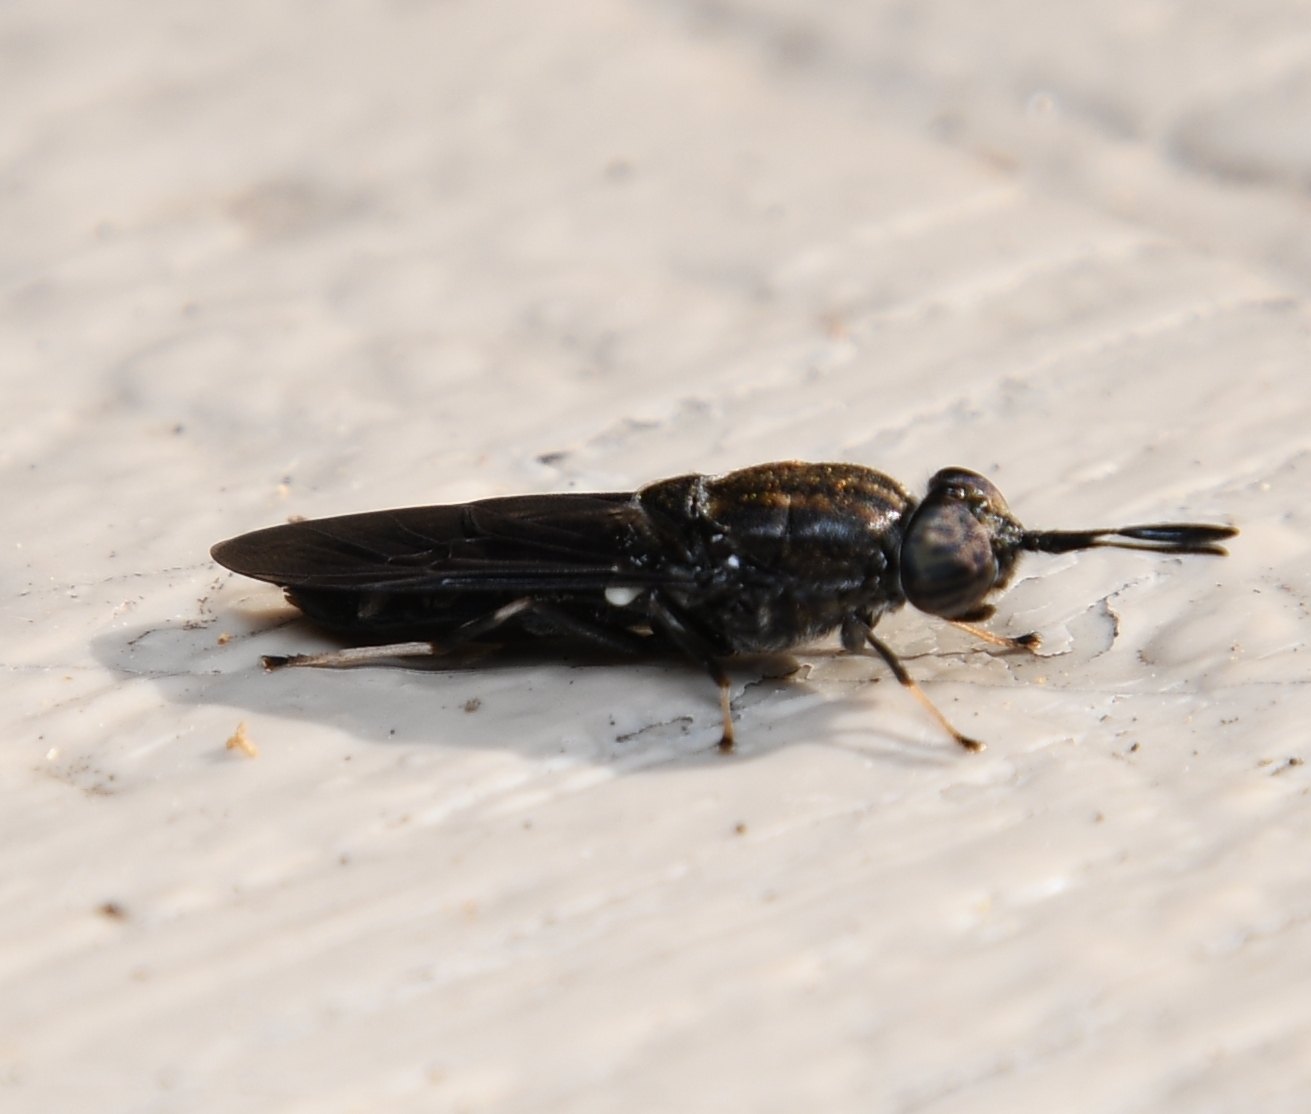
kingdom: Animalia
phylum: Arthropoda
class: Insecta
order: Diptera
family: Stratiomyidae
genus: Hermetia
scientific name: Hermetia sexmaculata
